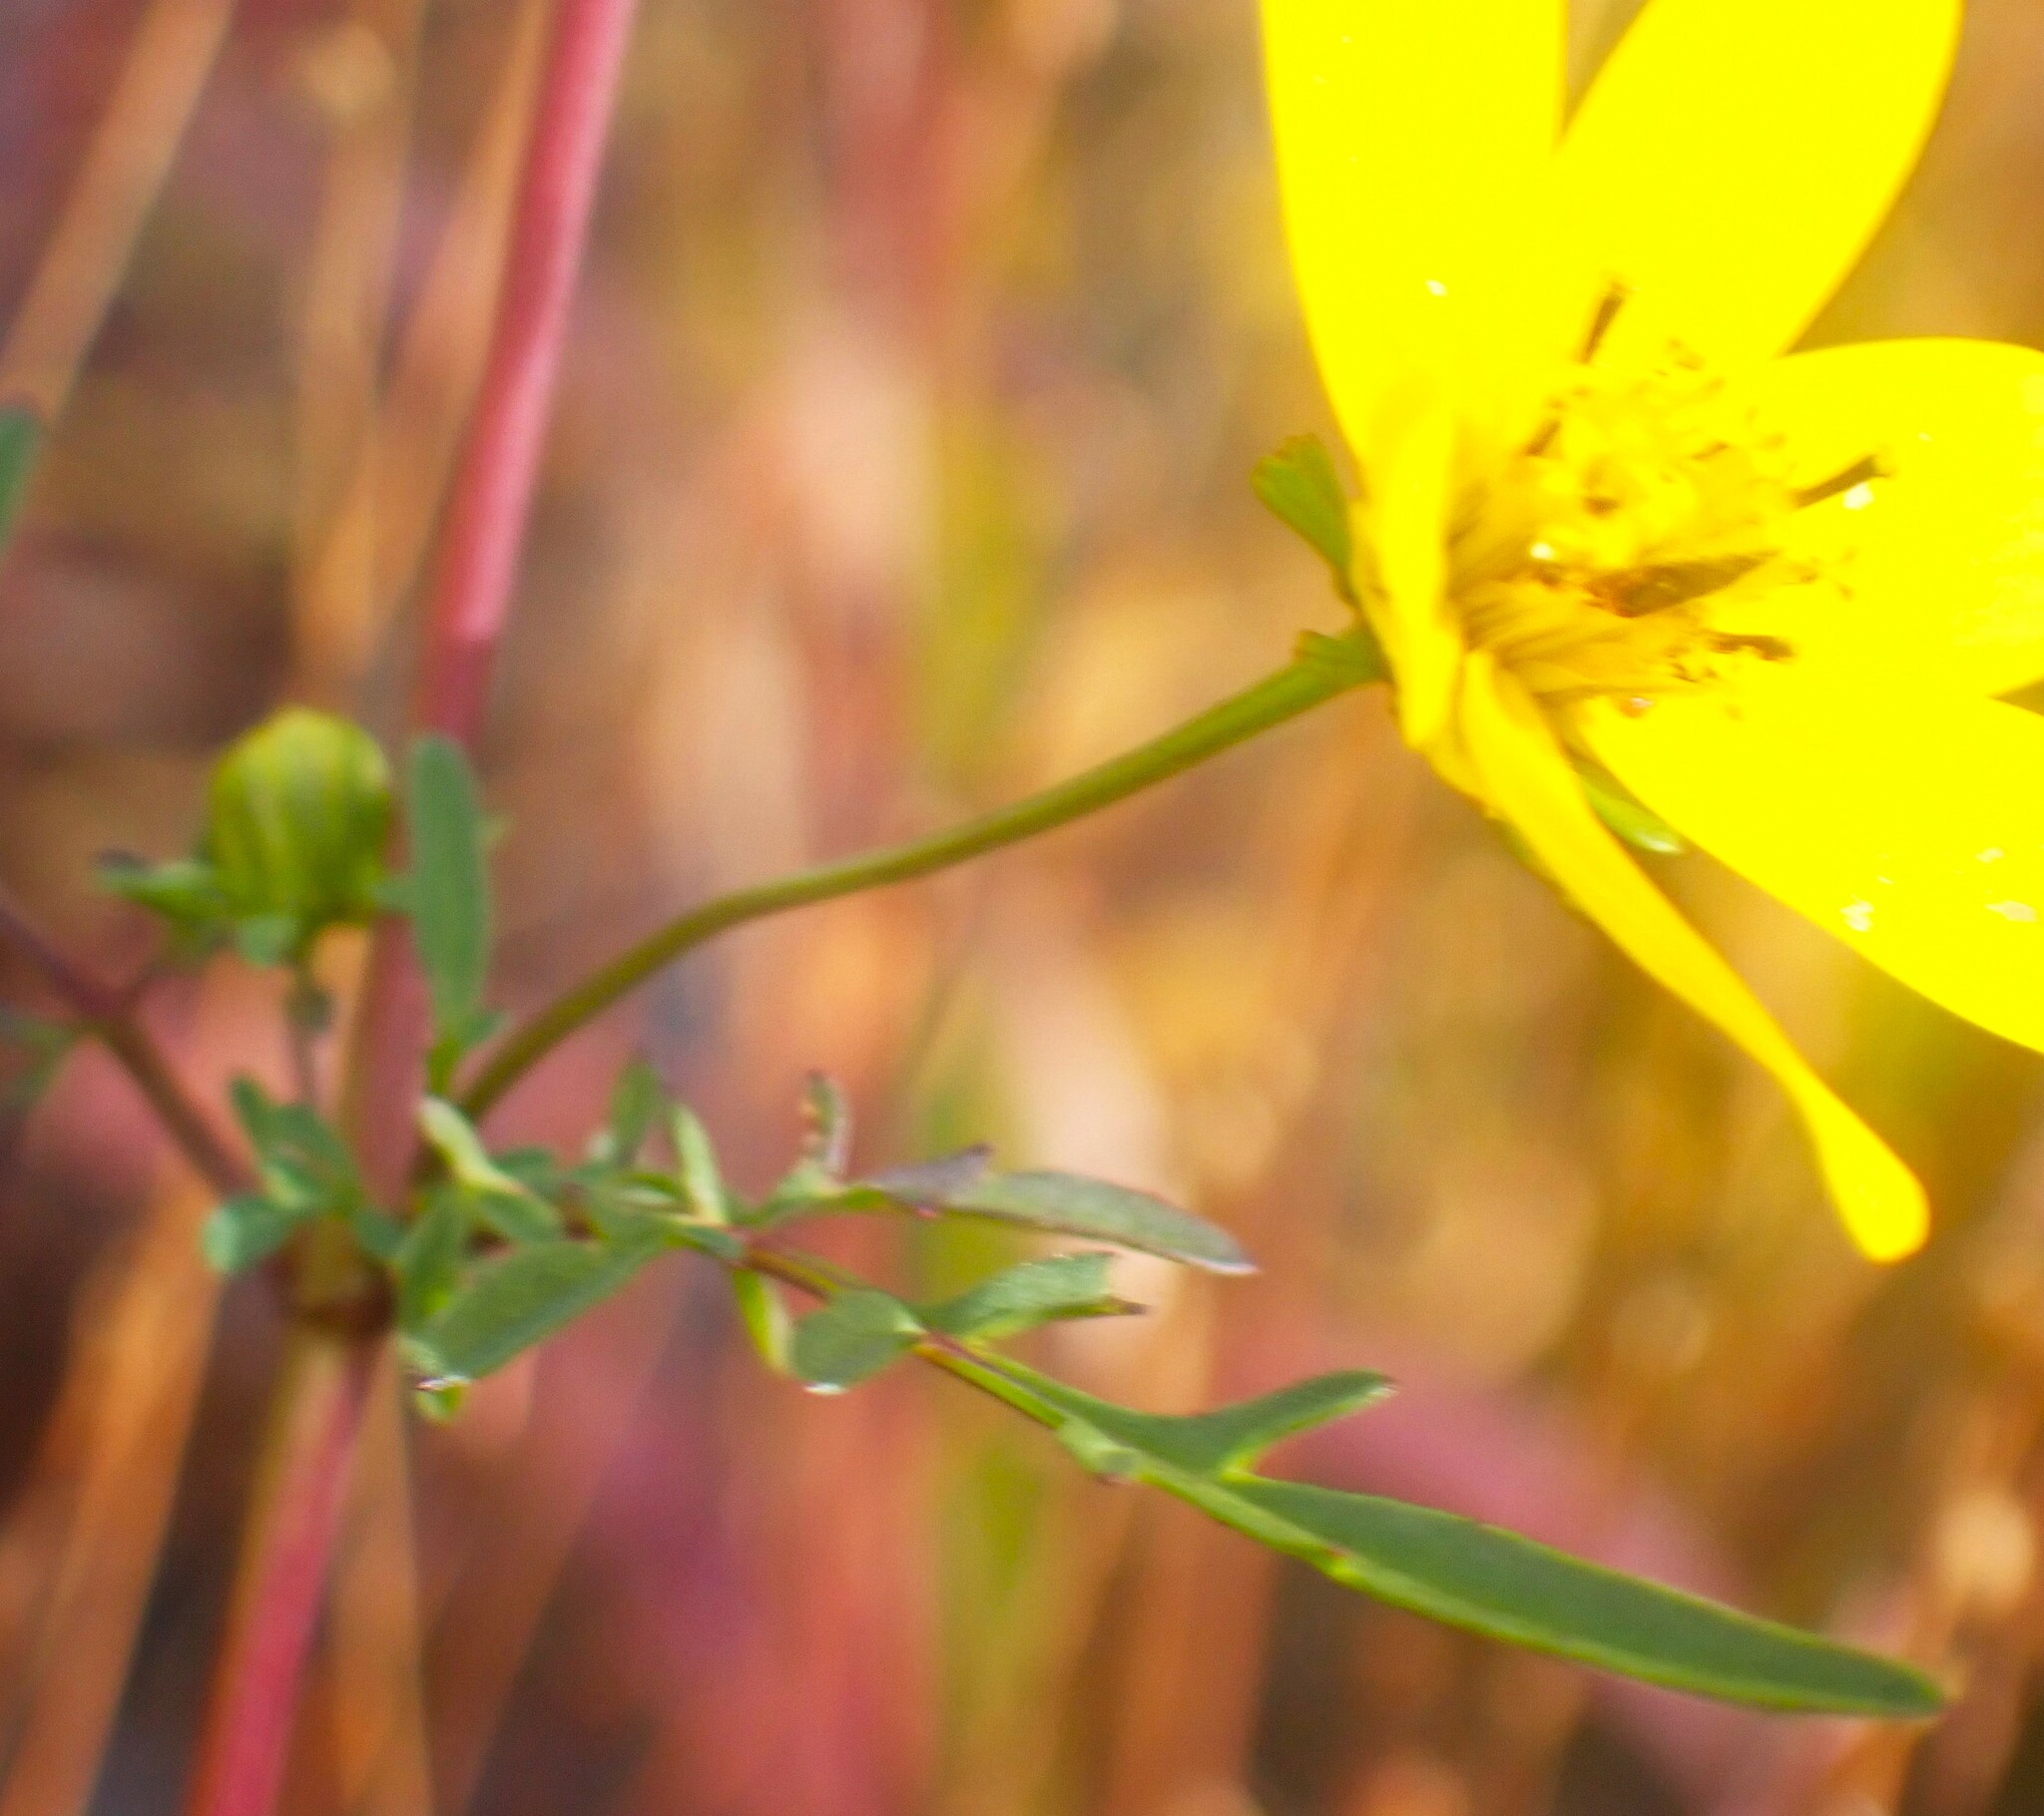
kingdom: Plantae
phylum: Tracheophyta
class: Magnoliopsida
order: Asterales
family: Asteraceae
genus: Bidens
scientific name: Bidens mitis
